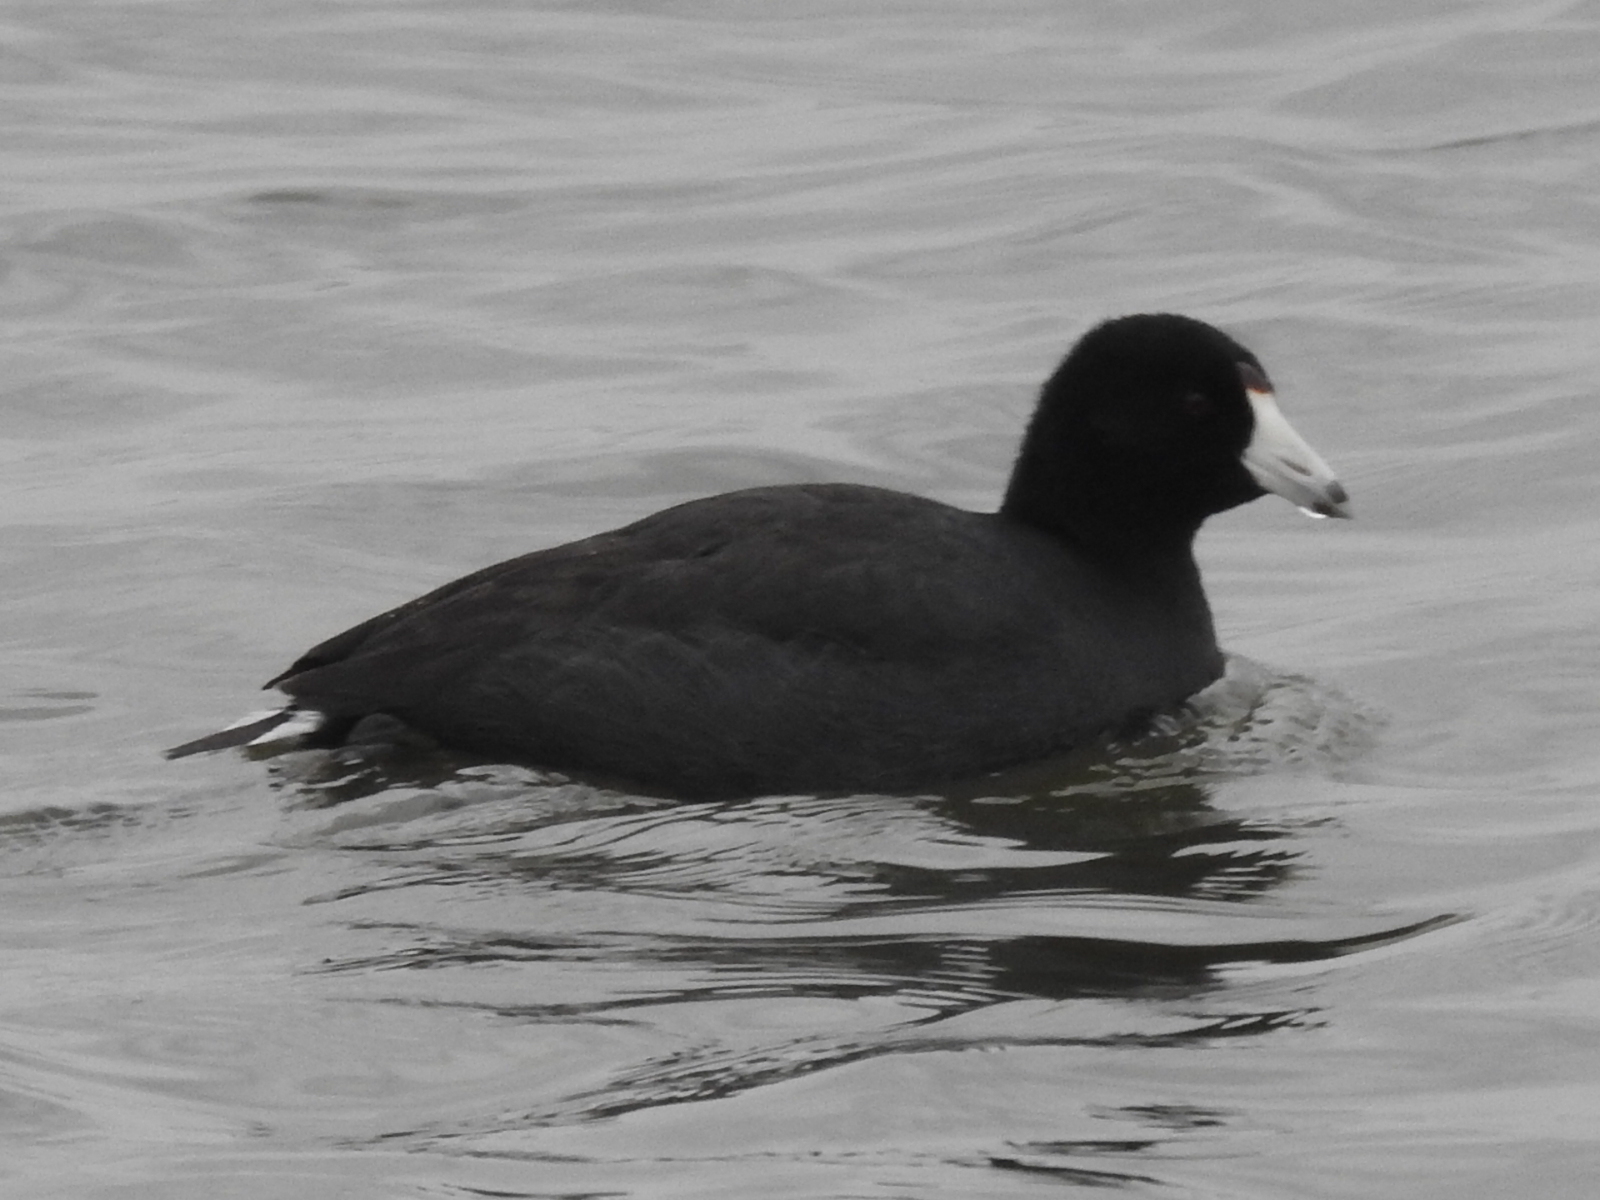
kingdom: Animalia
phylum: Chordata
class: Aves
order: Gruiformes
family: Rallidae
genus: Fulica
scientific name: Fulica americana
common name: American coot
